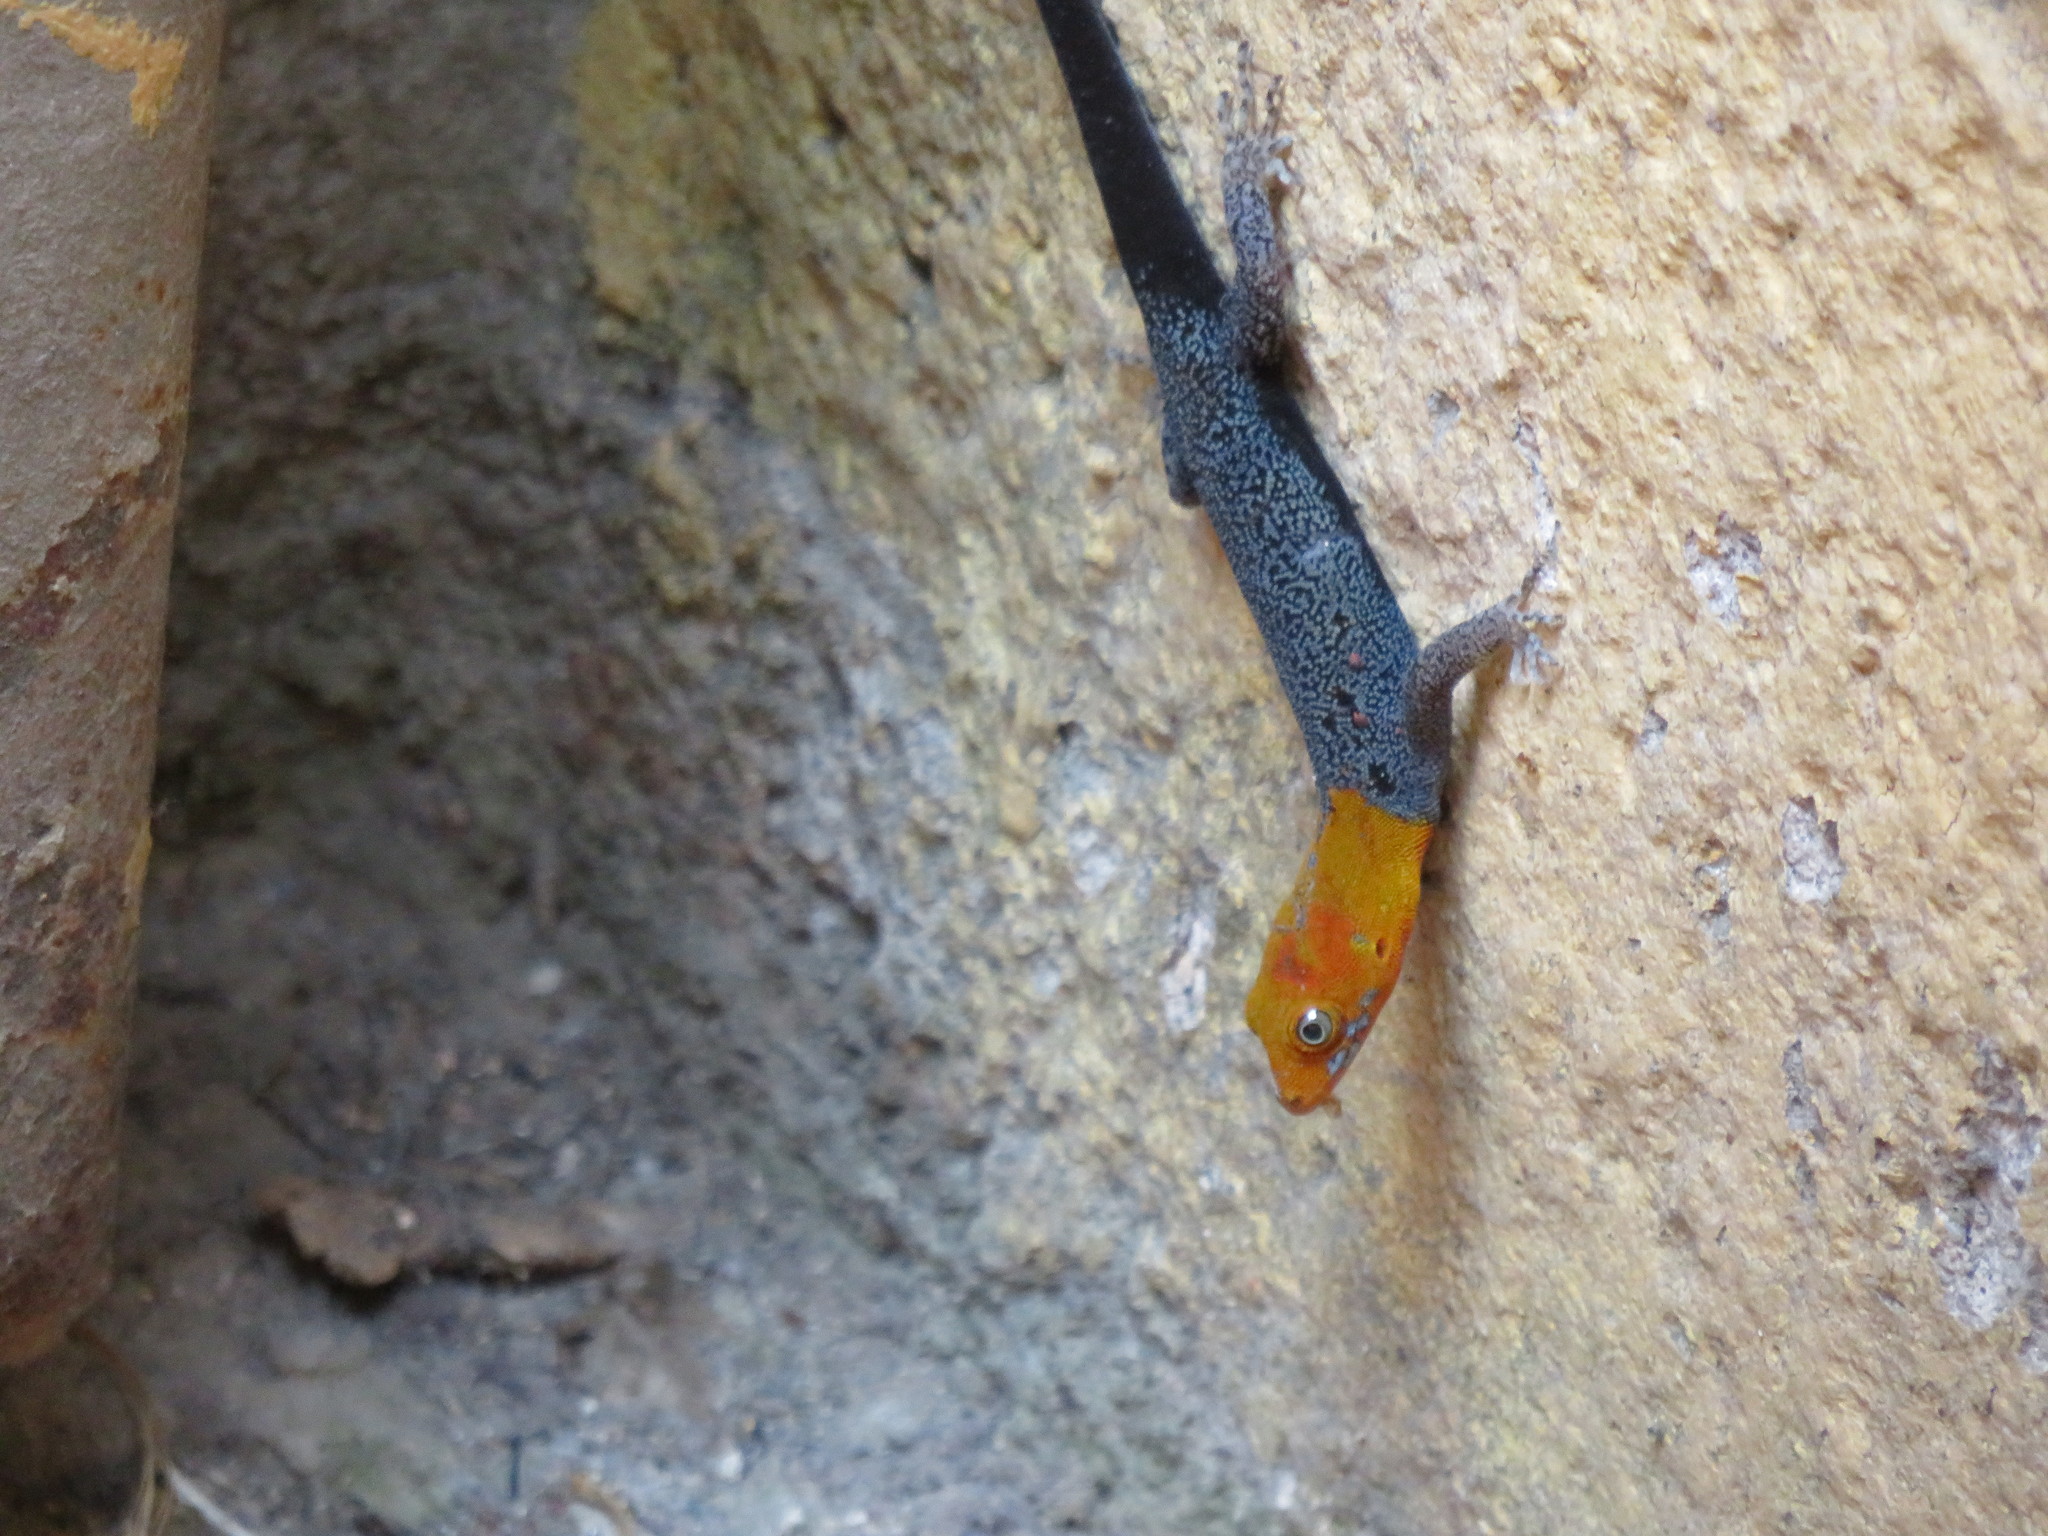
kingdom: Animalia
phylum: Chordata
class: Squamata
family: Sphaerodactylidae
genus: Gonatodes
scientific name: Gonatodes albogularis
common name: Yellow-headed gecko
